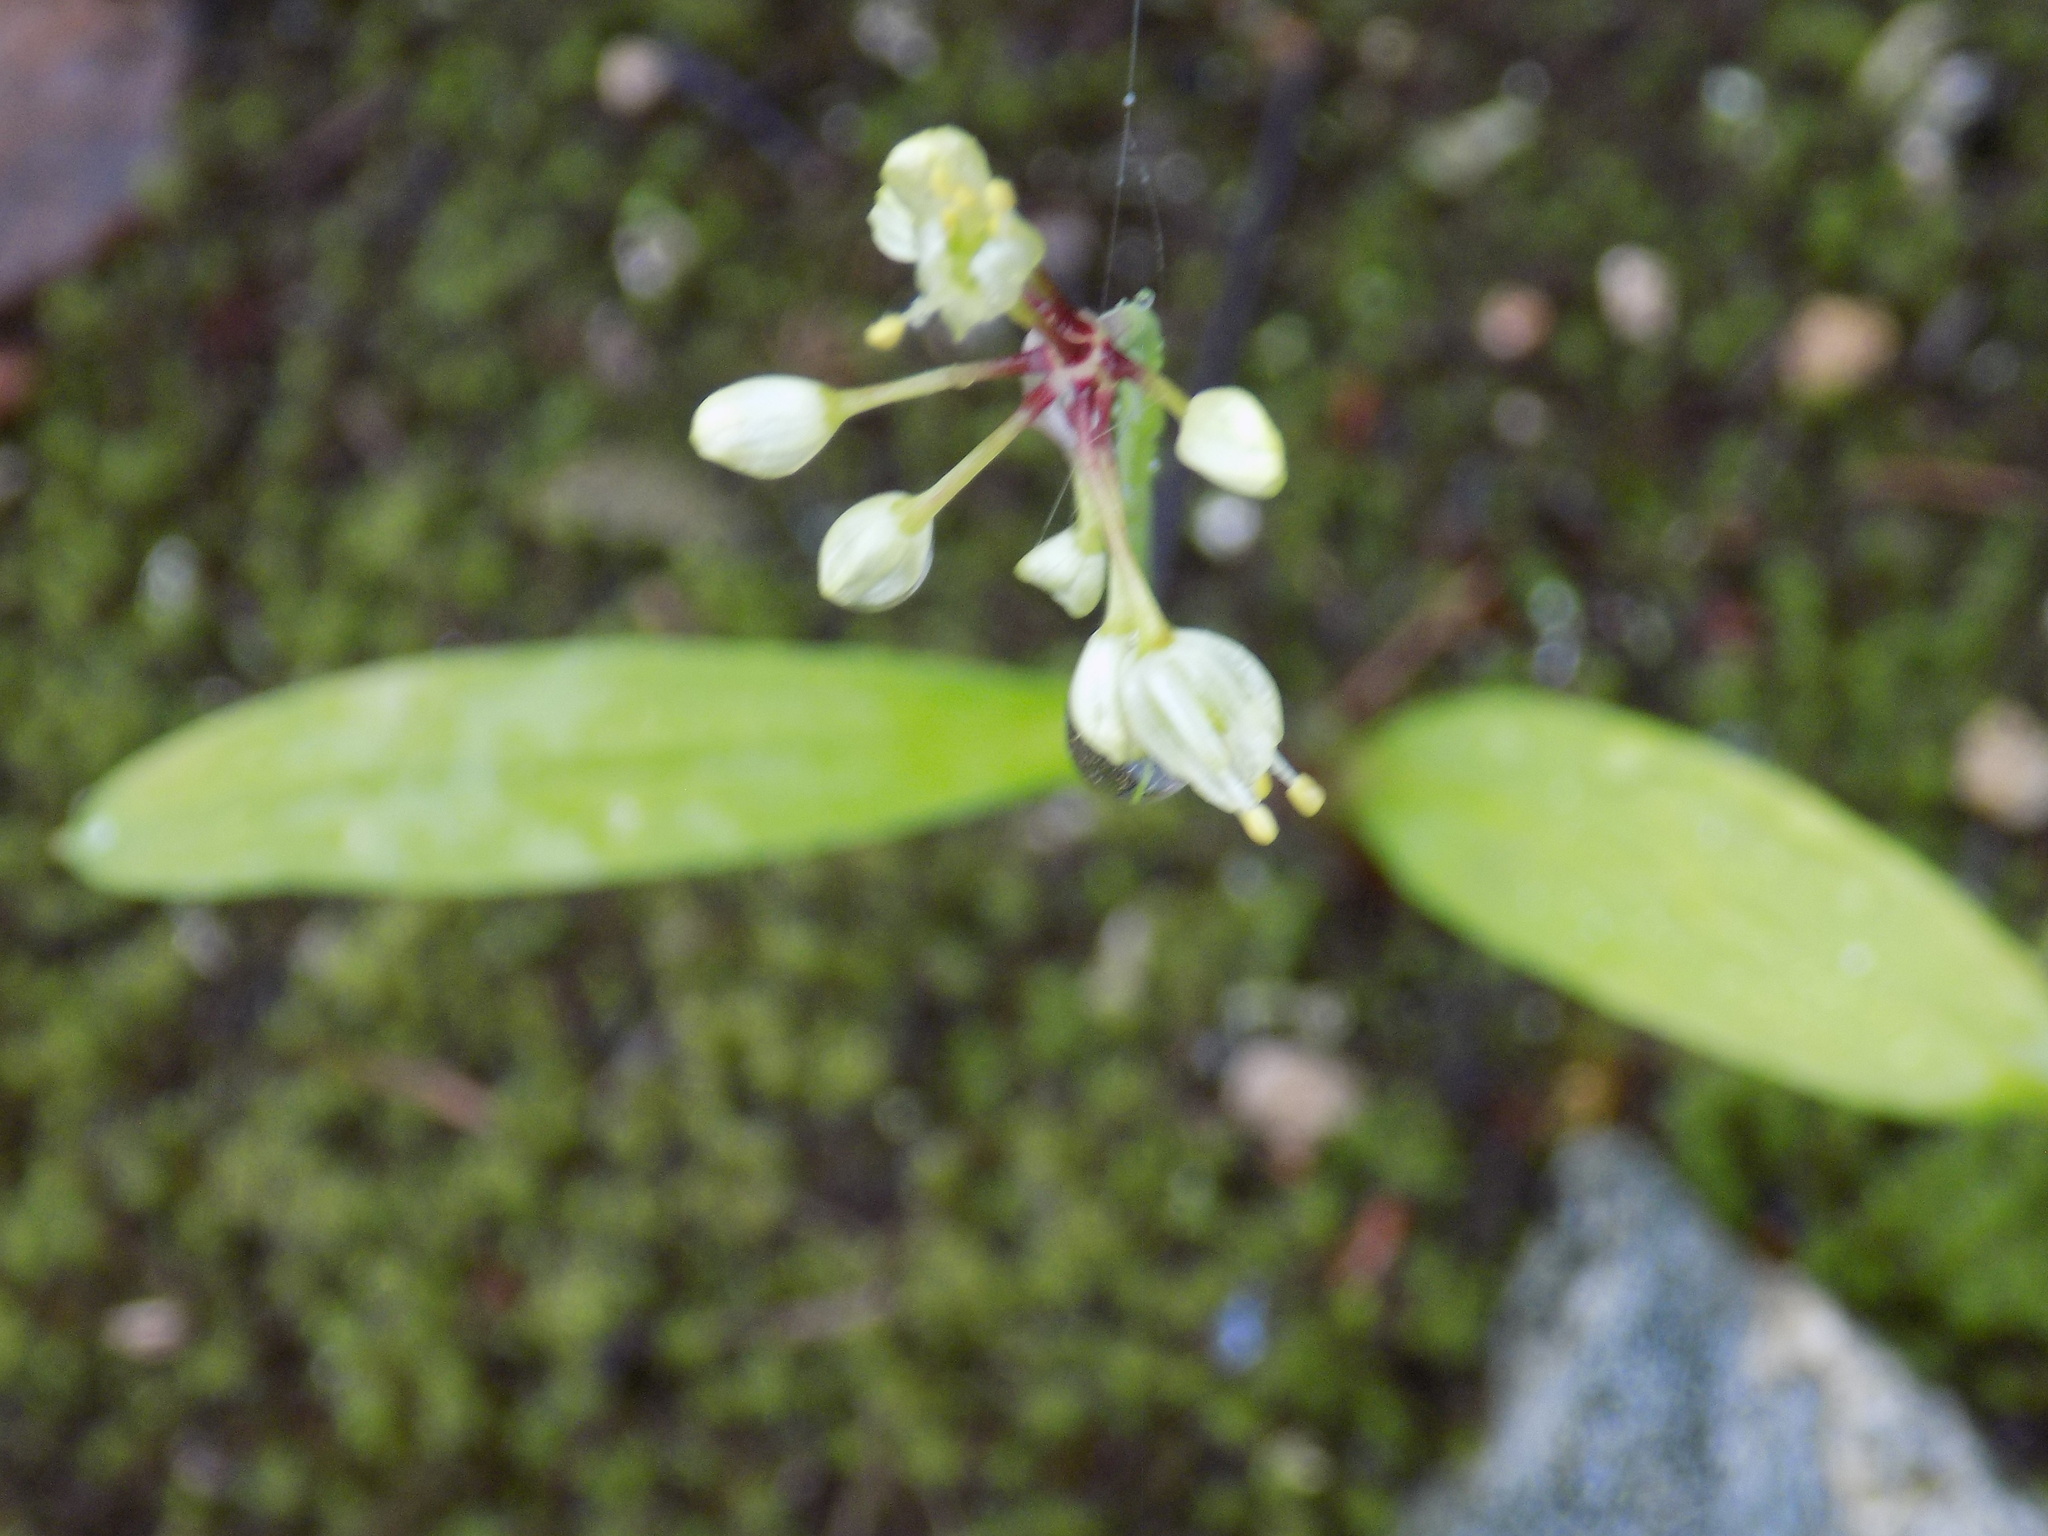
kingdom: Plantae
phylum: Tracheophyta
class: Liliopsida
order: Asparagales
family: Amaryllidaceae
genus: Allium
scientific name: Allium microdictyon
